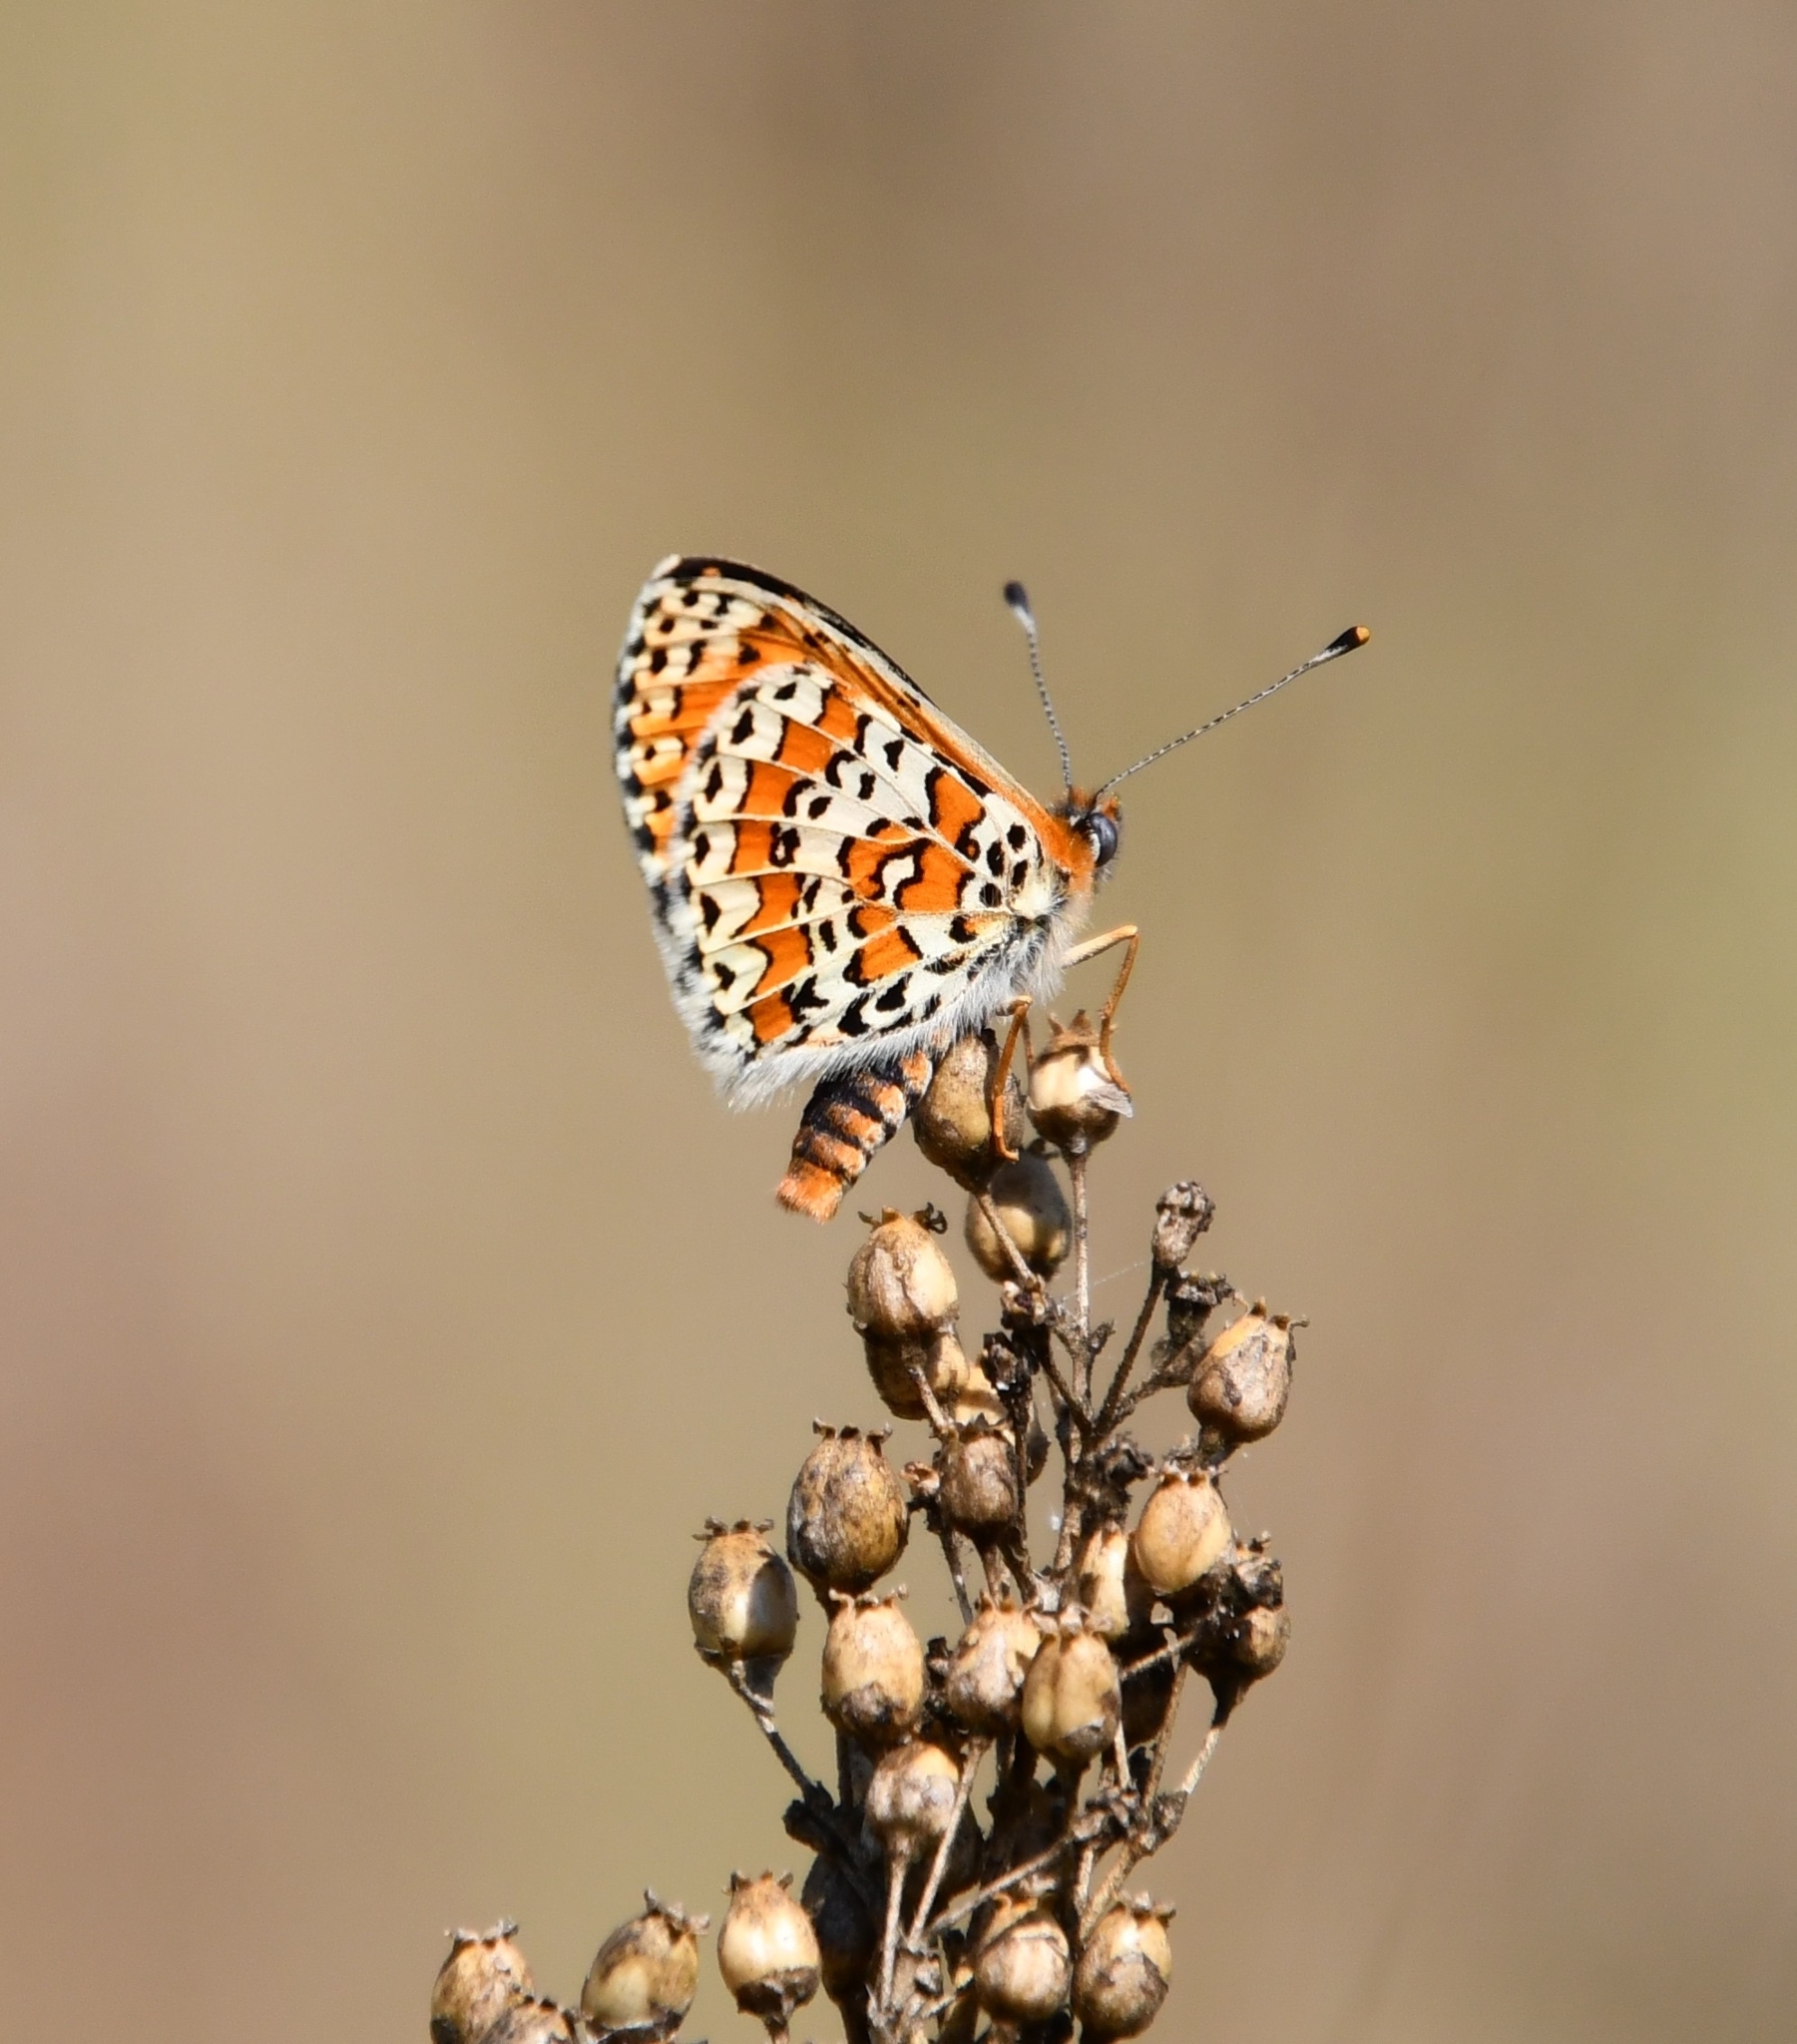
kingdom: Animalia
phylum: Arthropoda
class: Insecta
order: Lepidoptera
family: Nymphalidae
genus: Melitaea
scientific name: Melitaea trivia
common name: Lesser spotted fritillary
